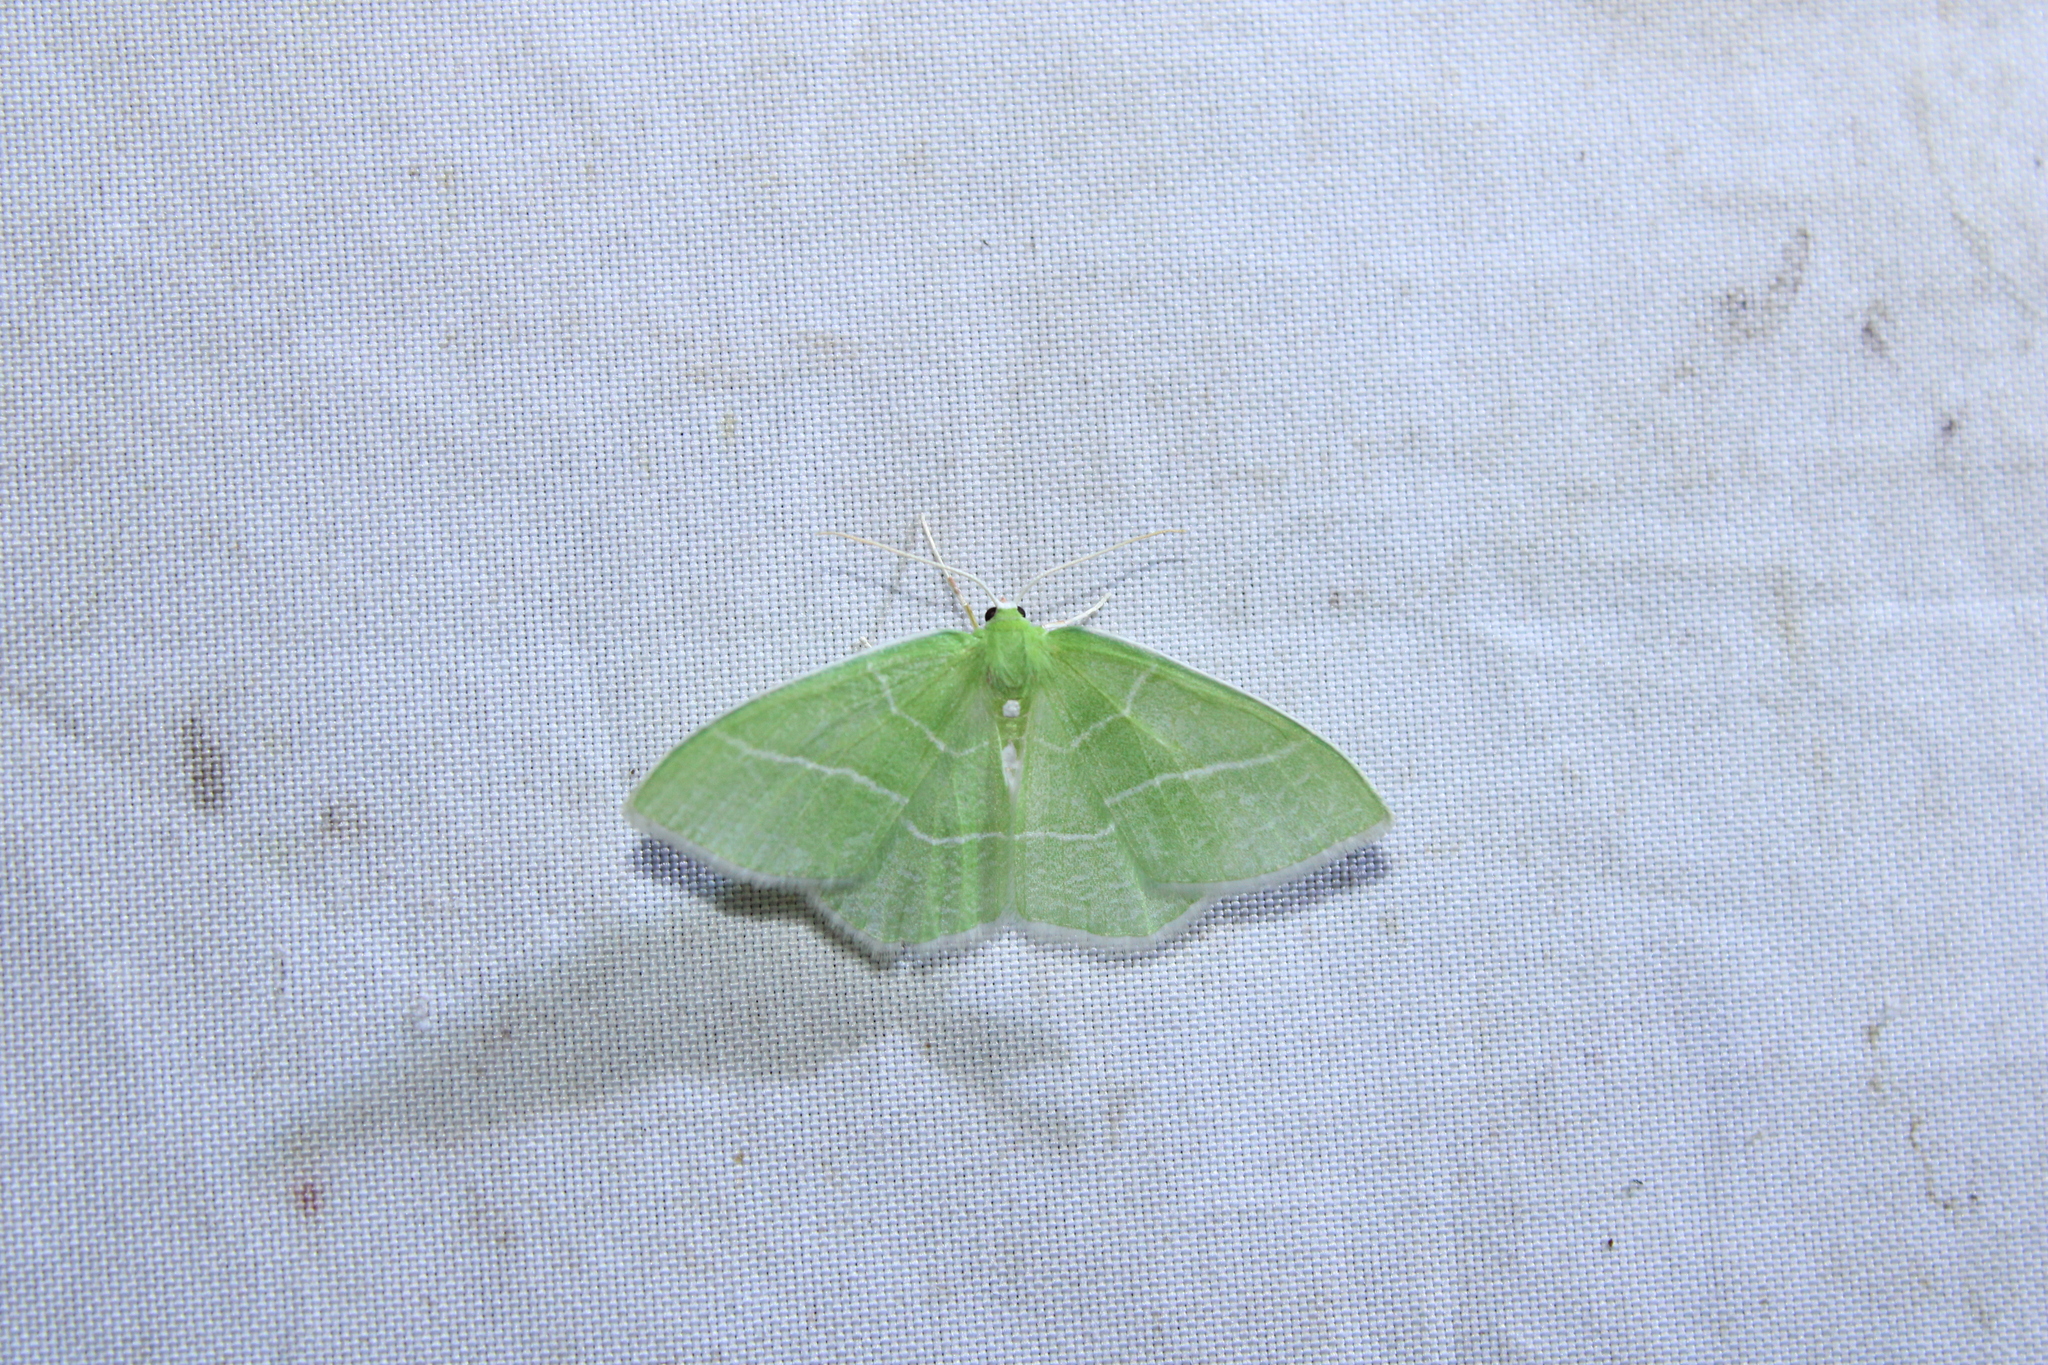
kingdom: Animalia
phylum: Arthropoda
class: Insecta
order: Lepidoptera
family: Geometridae
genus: Nemoria
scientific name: Nemoria mimosaria
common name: White-fringed emerald
